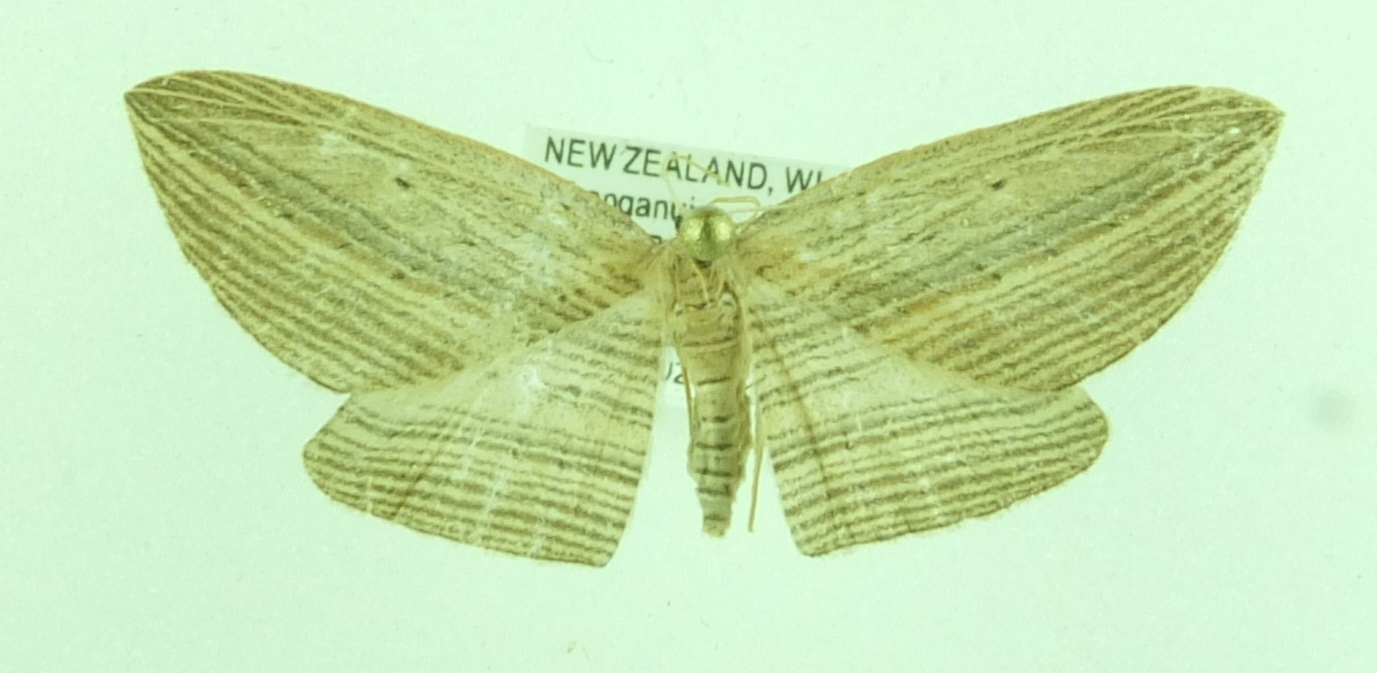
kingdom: Animalia
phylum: Arthropoda
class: Insecta
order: Lepidoptera
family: Geometridae
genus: Epiphryne
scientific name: Epiphryne verriculata
